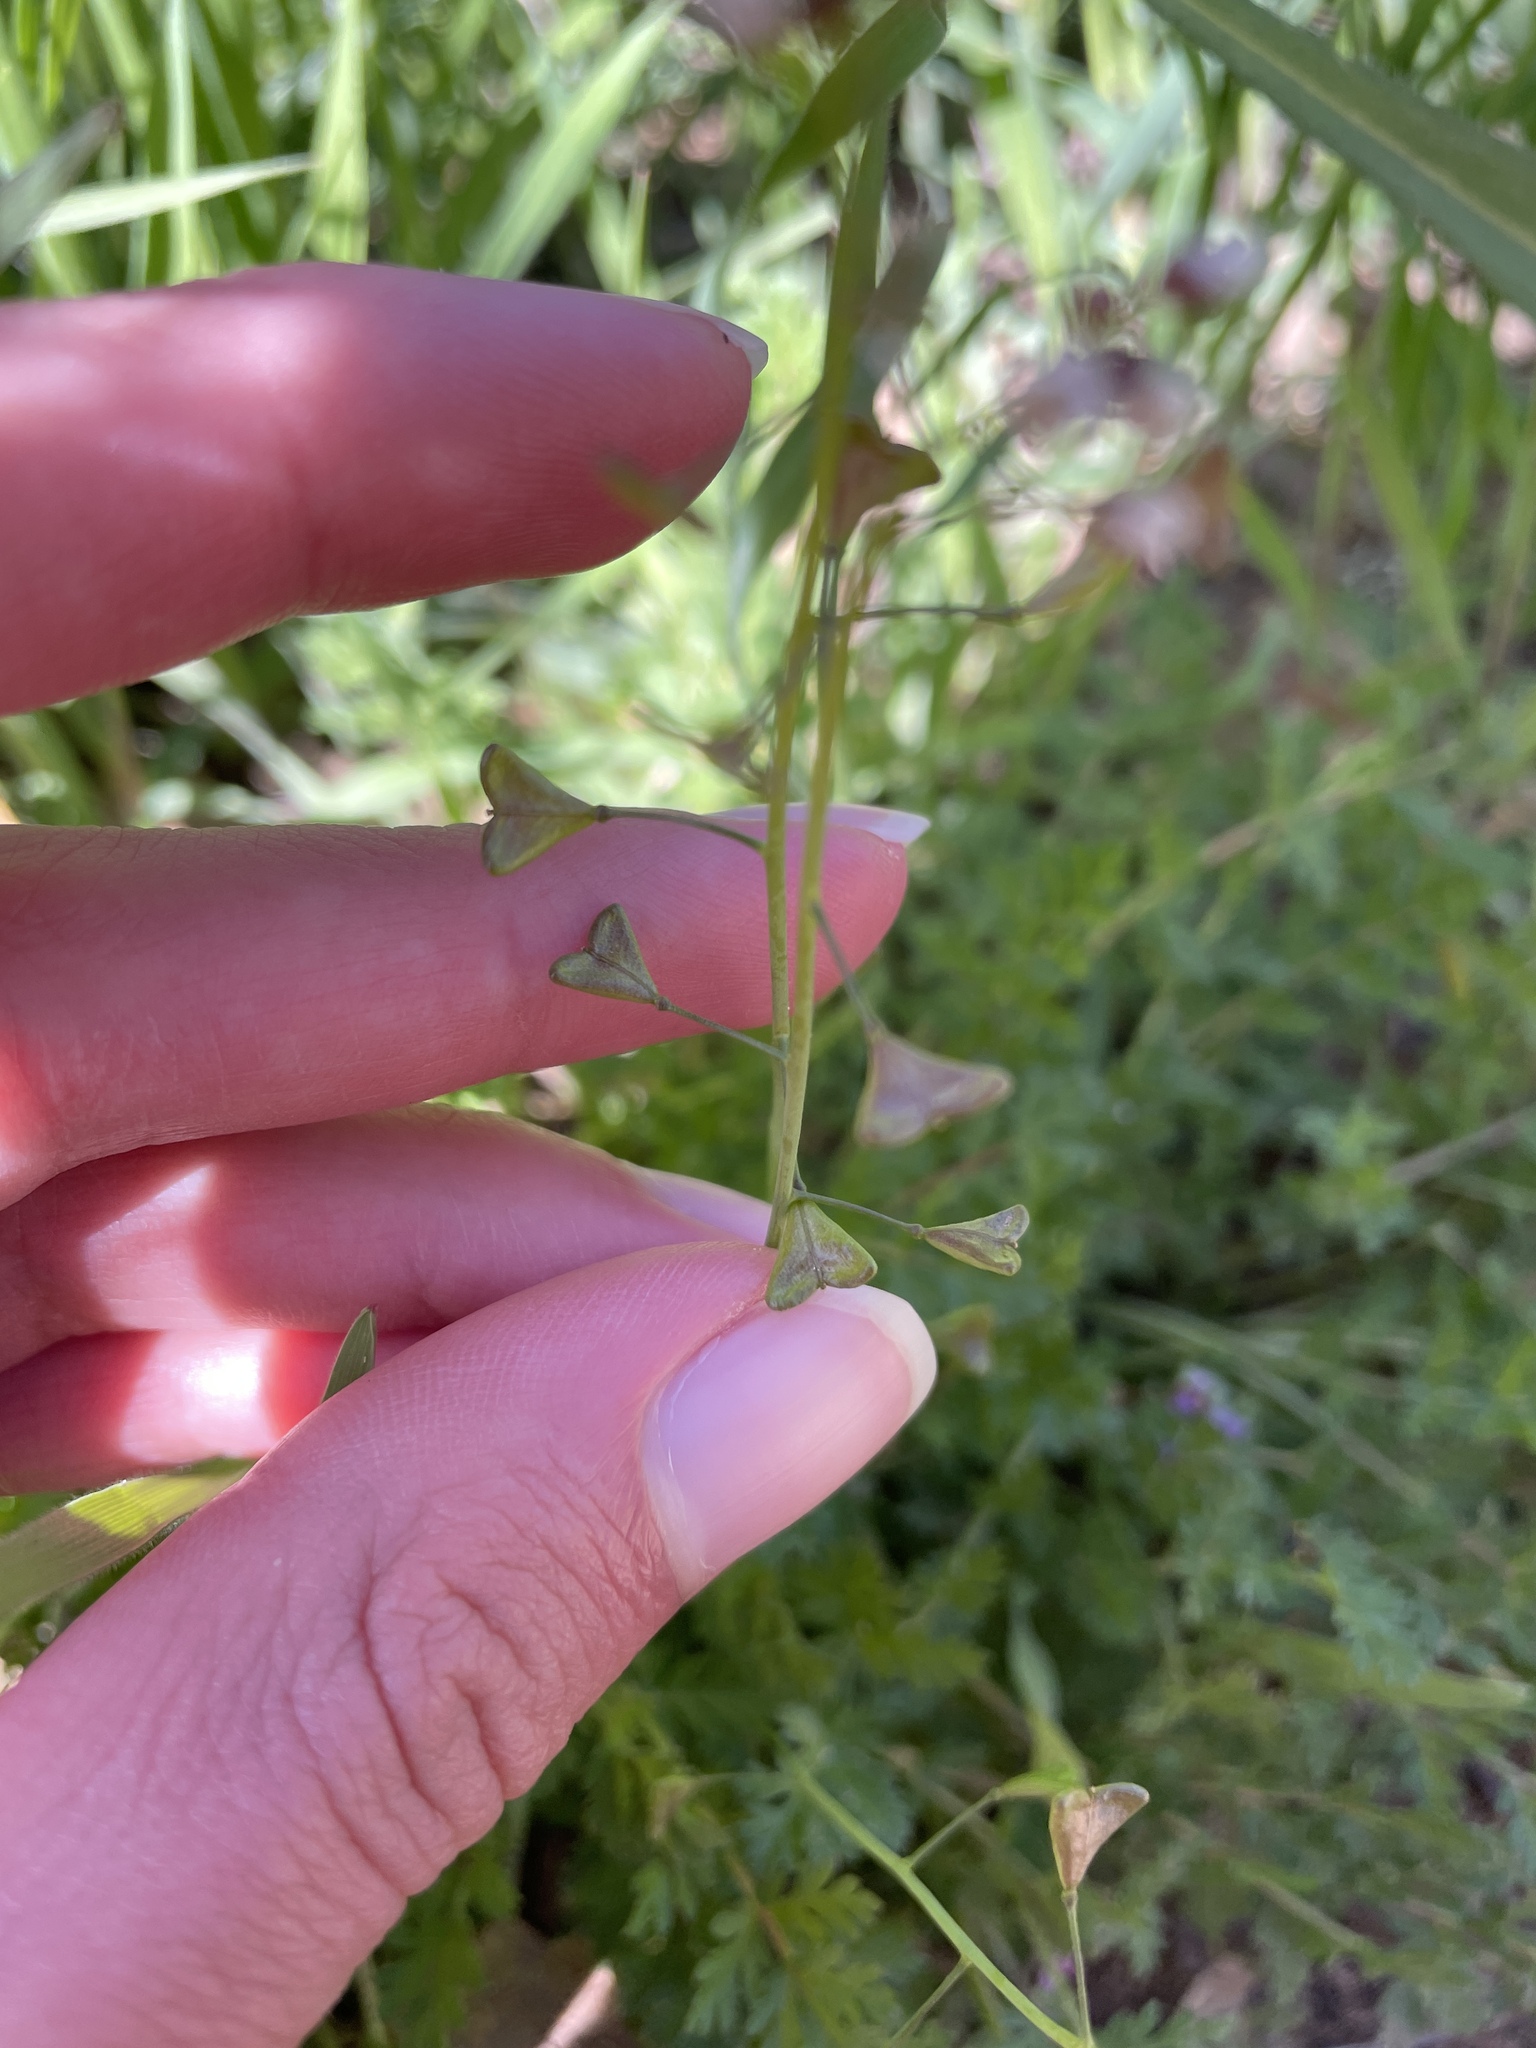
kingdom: Plantae
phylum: Tracheophyta
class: Magnoliopsida
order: Brassicales
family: Brassicaceae
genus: Capsella
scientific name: Capsella bursa-pastoris
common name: Shepherd's purse
